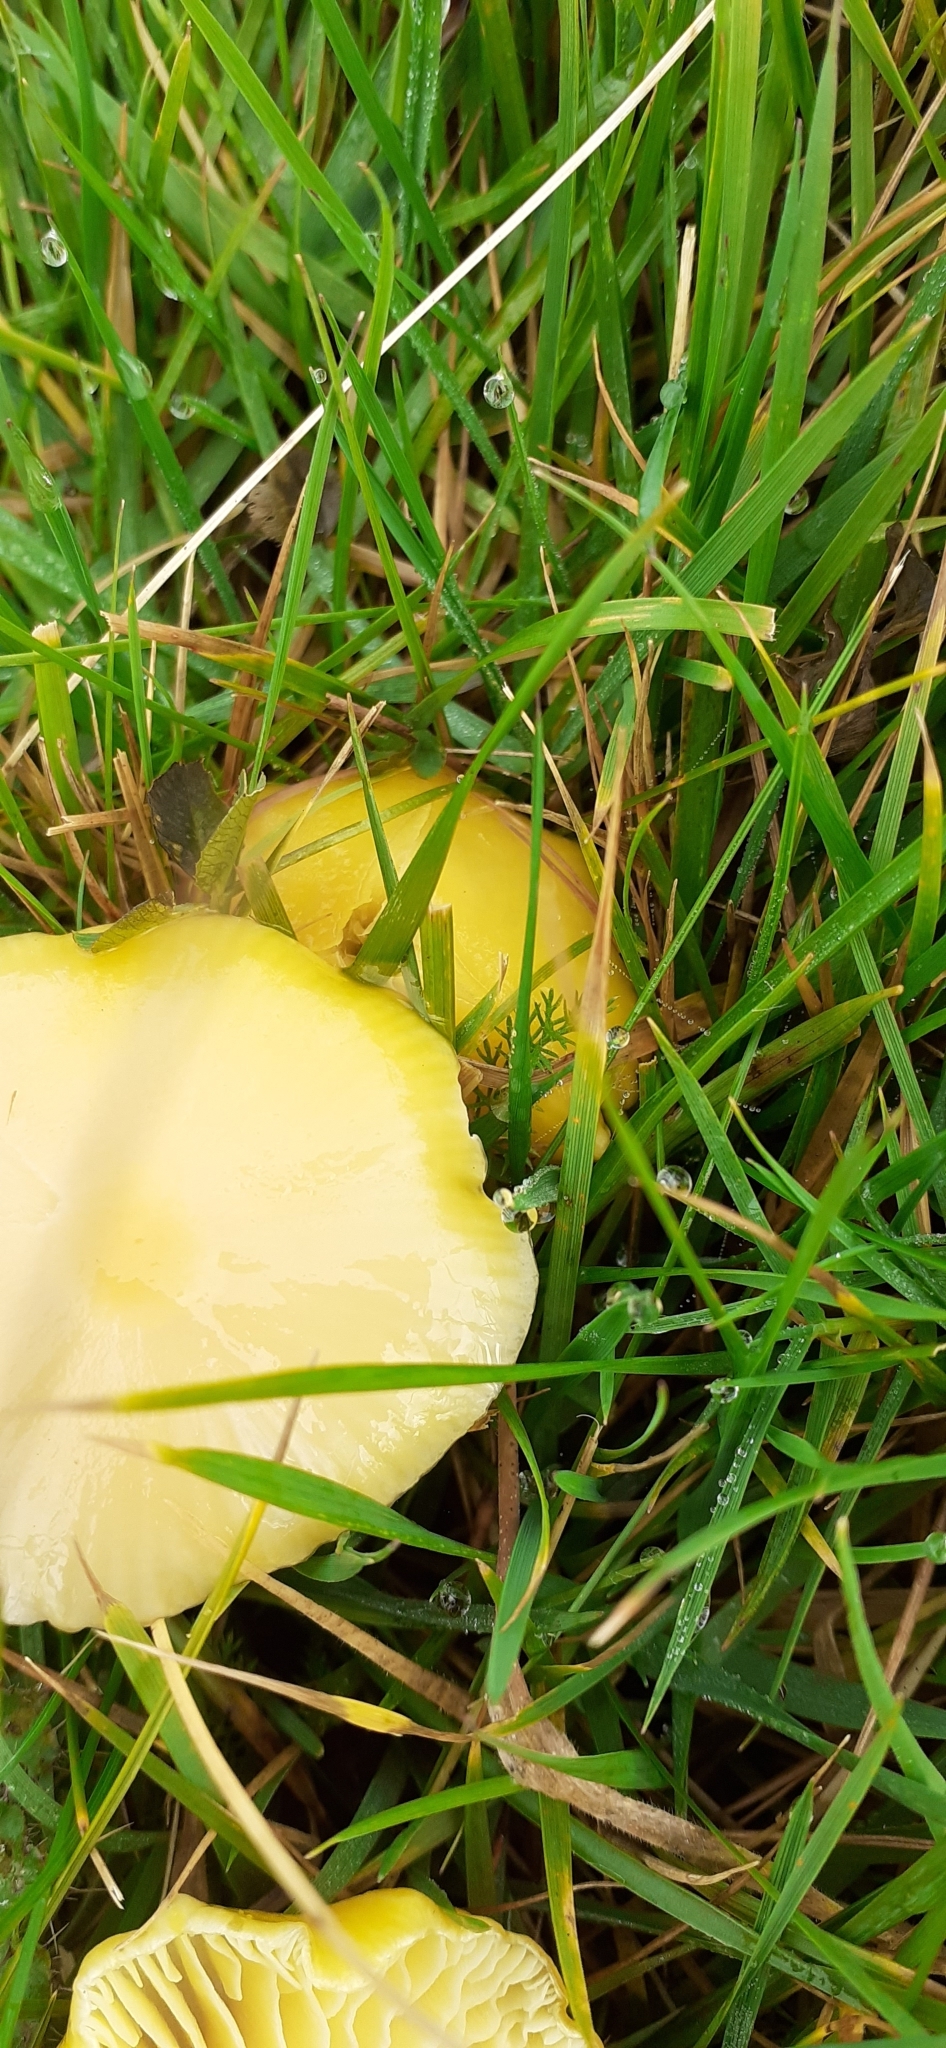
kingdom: Fungi
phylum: Basidiomycota
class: Agaricomycetes
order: Agaricales
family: Hygrophoraceae
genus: Hygrocybe
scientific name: Hygrocybe chlorophana
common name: Golden waxcap
